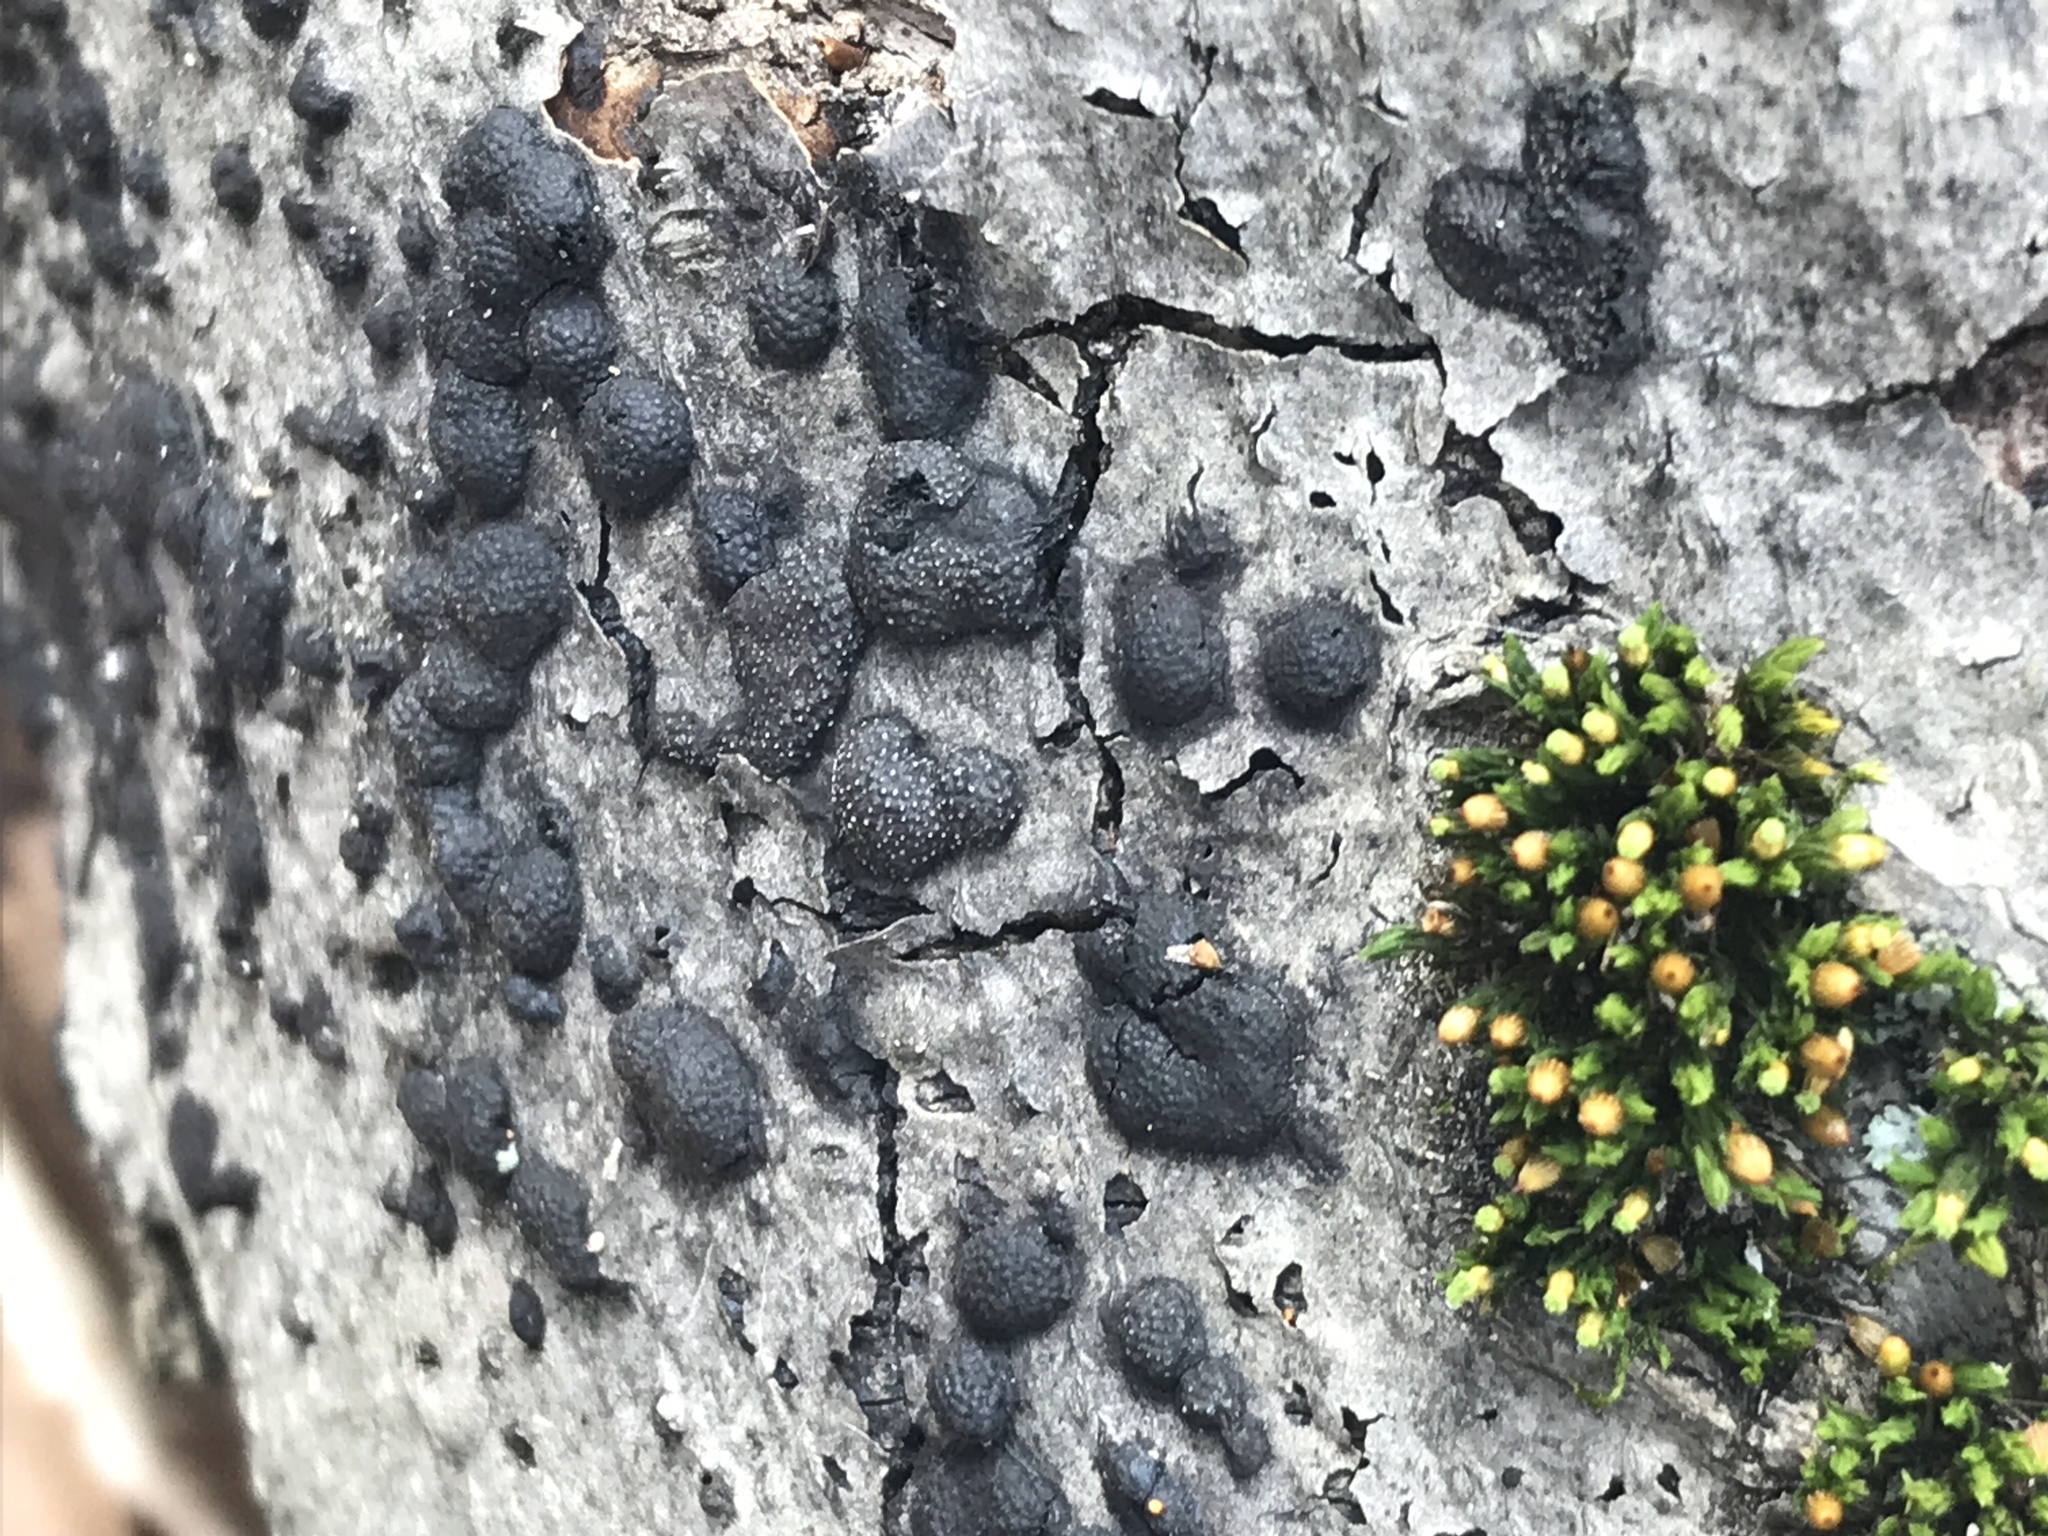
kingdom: Fungi
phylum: Ascomycota
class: Sordariomycetes
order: Xylariales
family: Hypoxylaceae
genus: Daldinia
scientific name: Daldinia childiae
